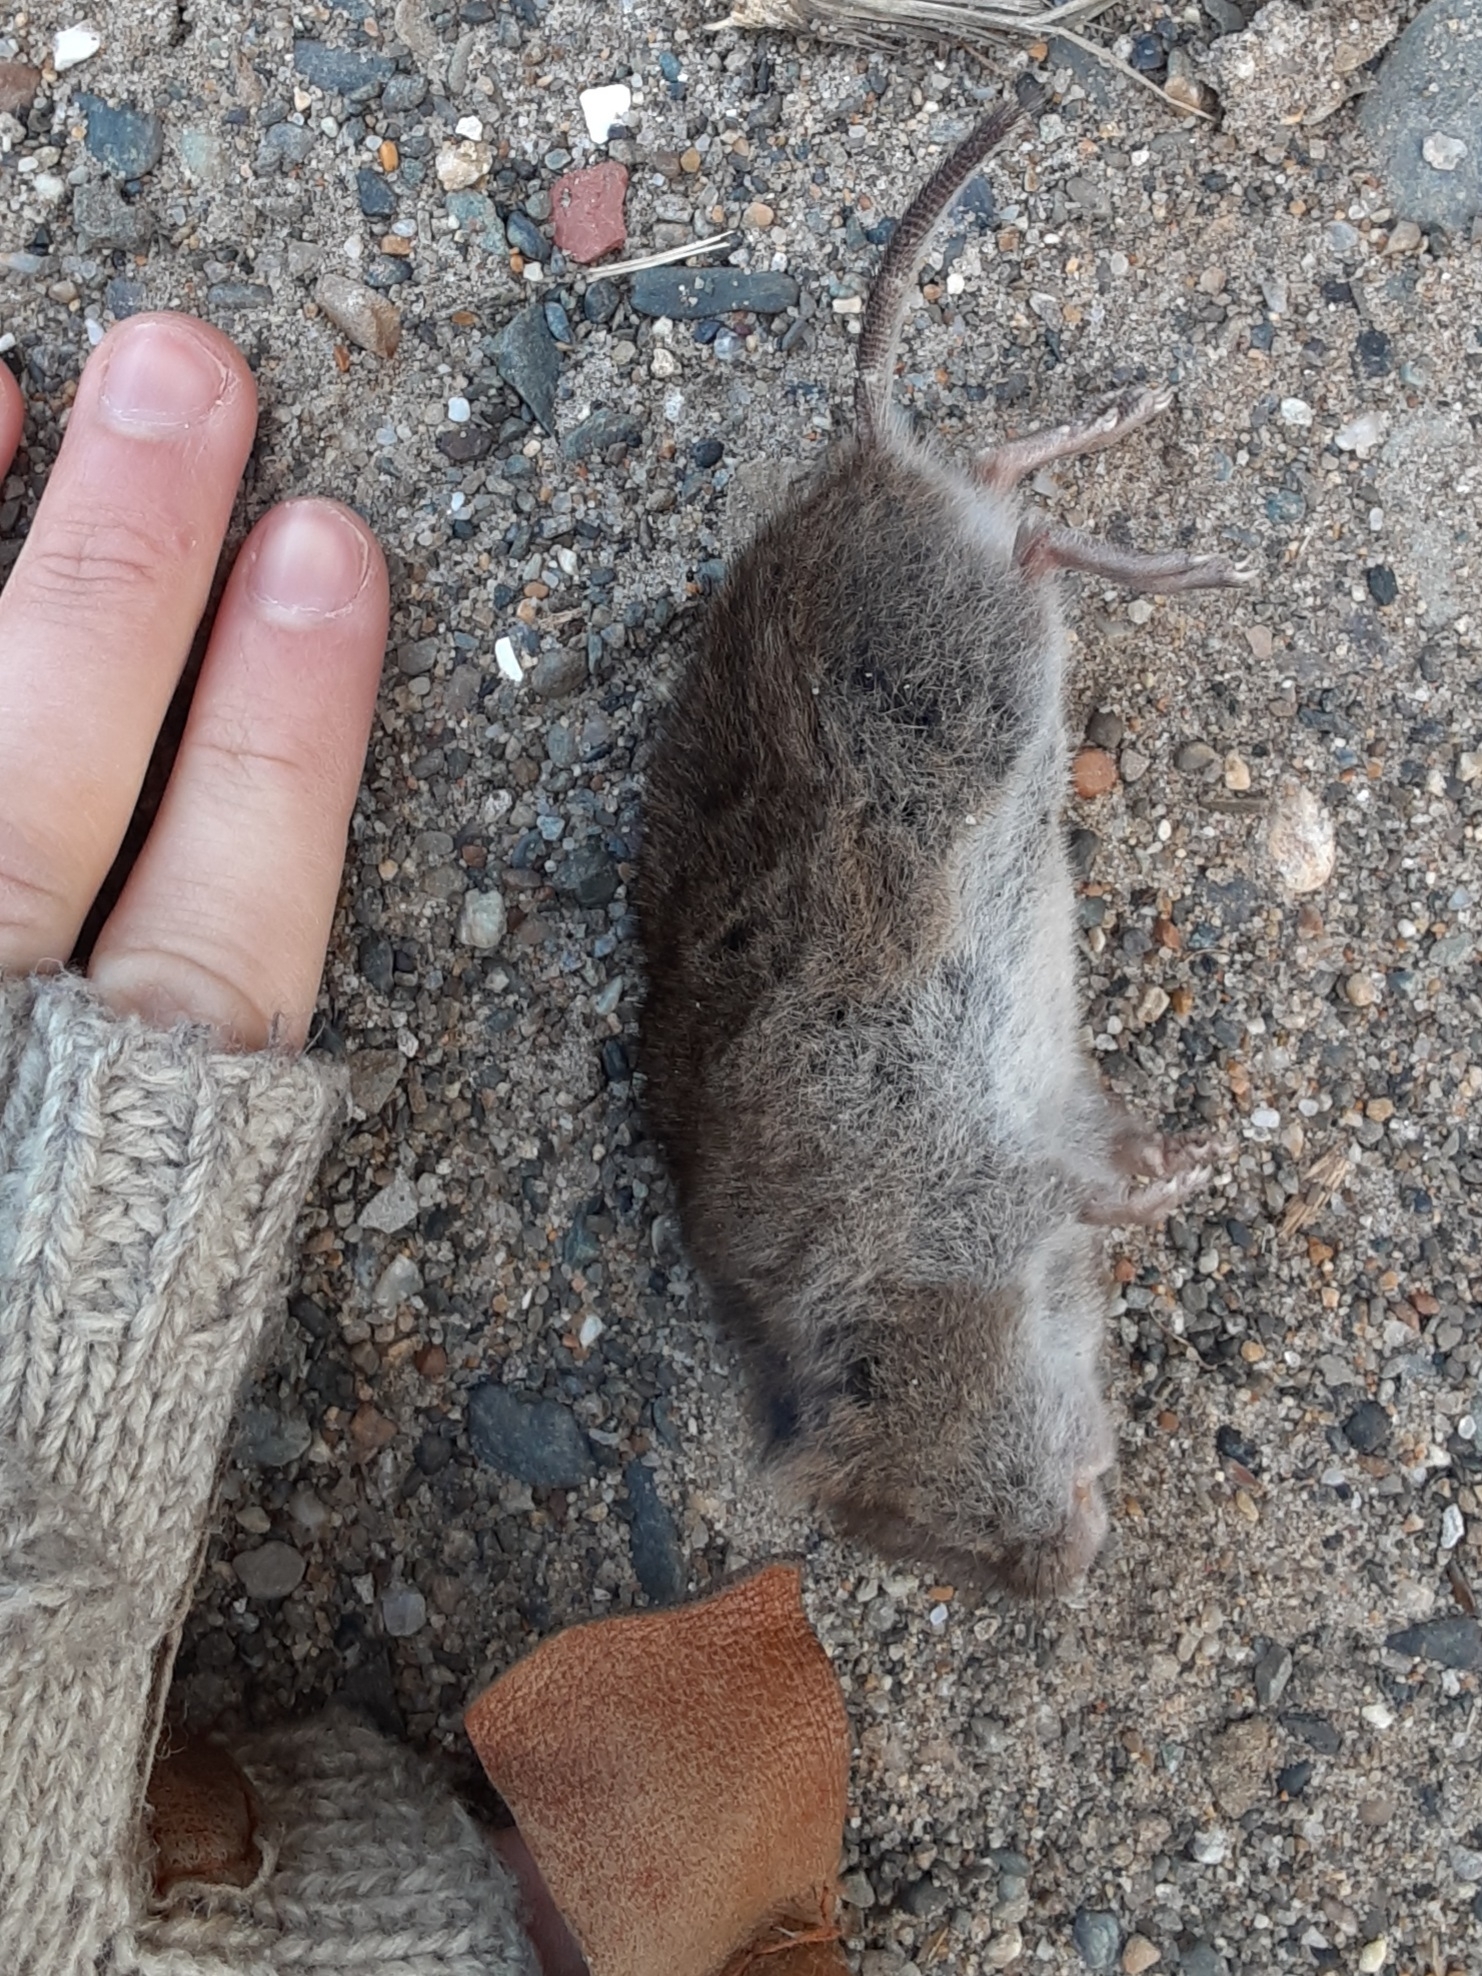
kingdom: Animalia
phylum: Chordata
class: Mammalia
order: Rodentia
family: Cricetidae
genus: Microtus
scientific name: Microtus pennsylvanicus
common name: Meadow vole
